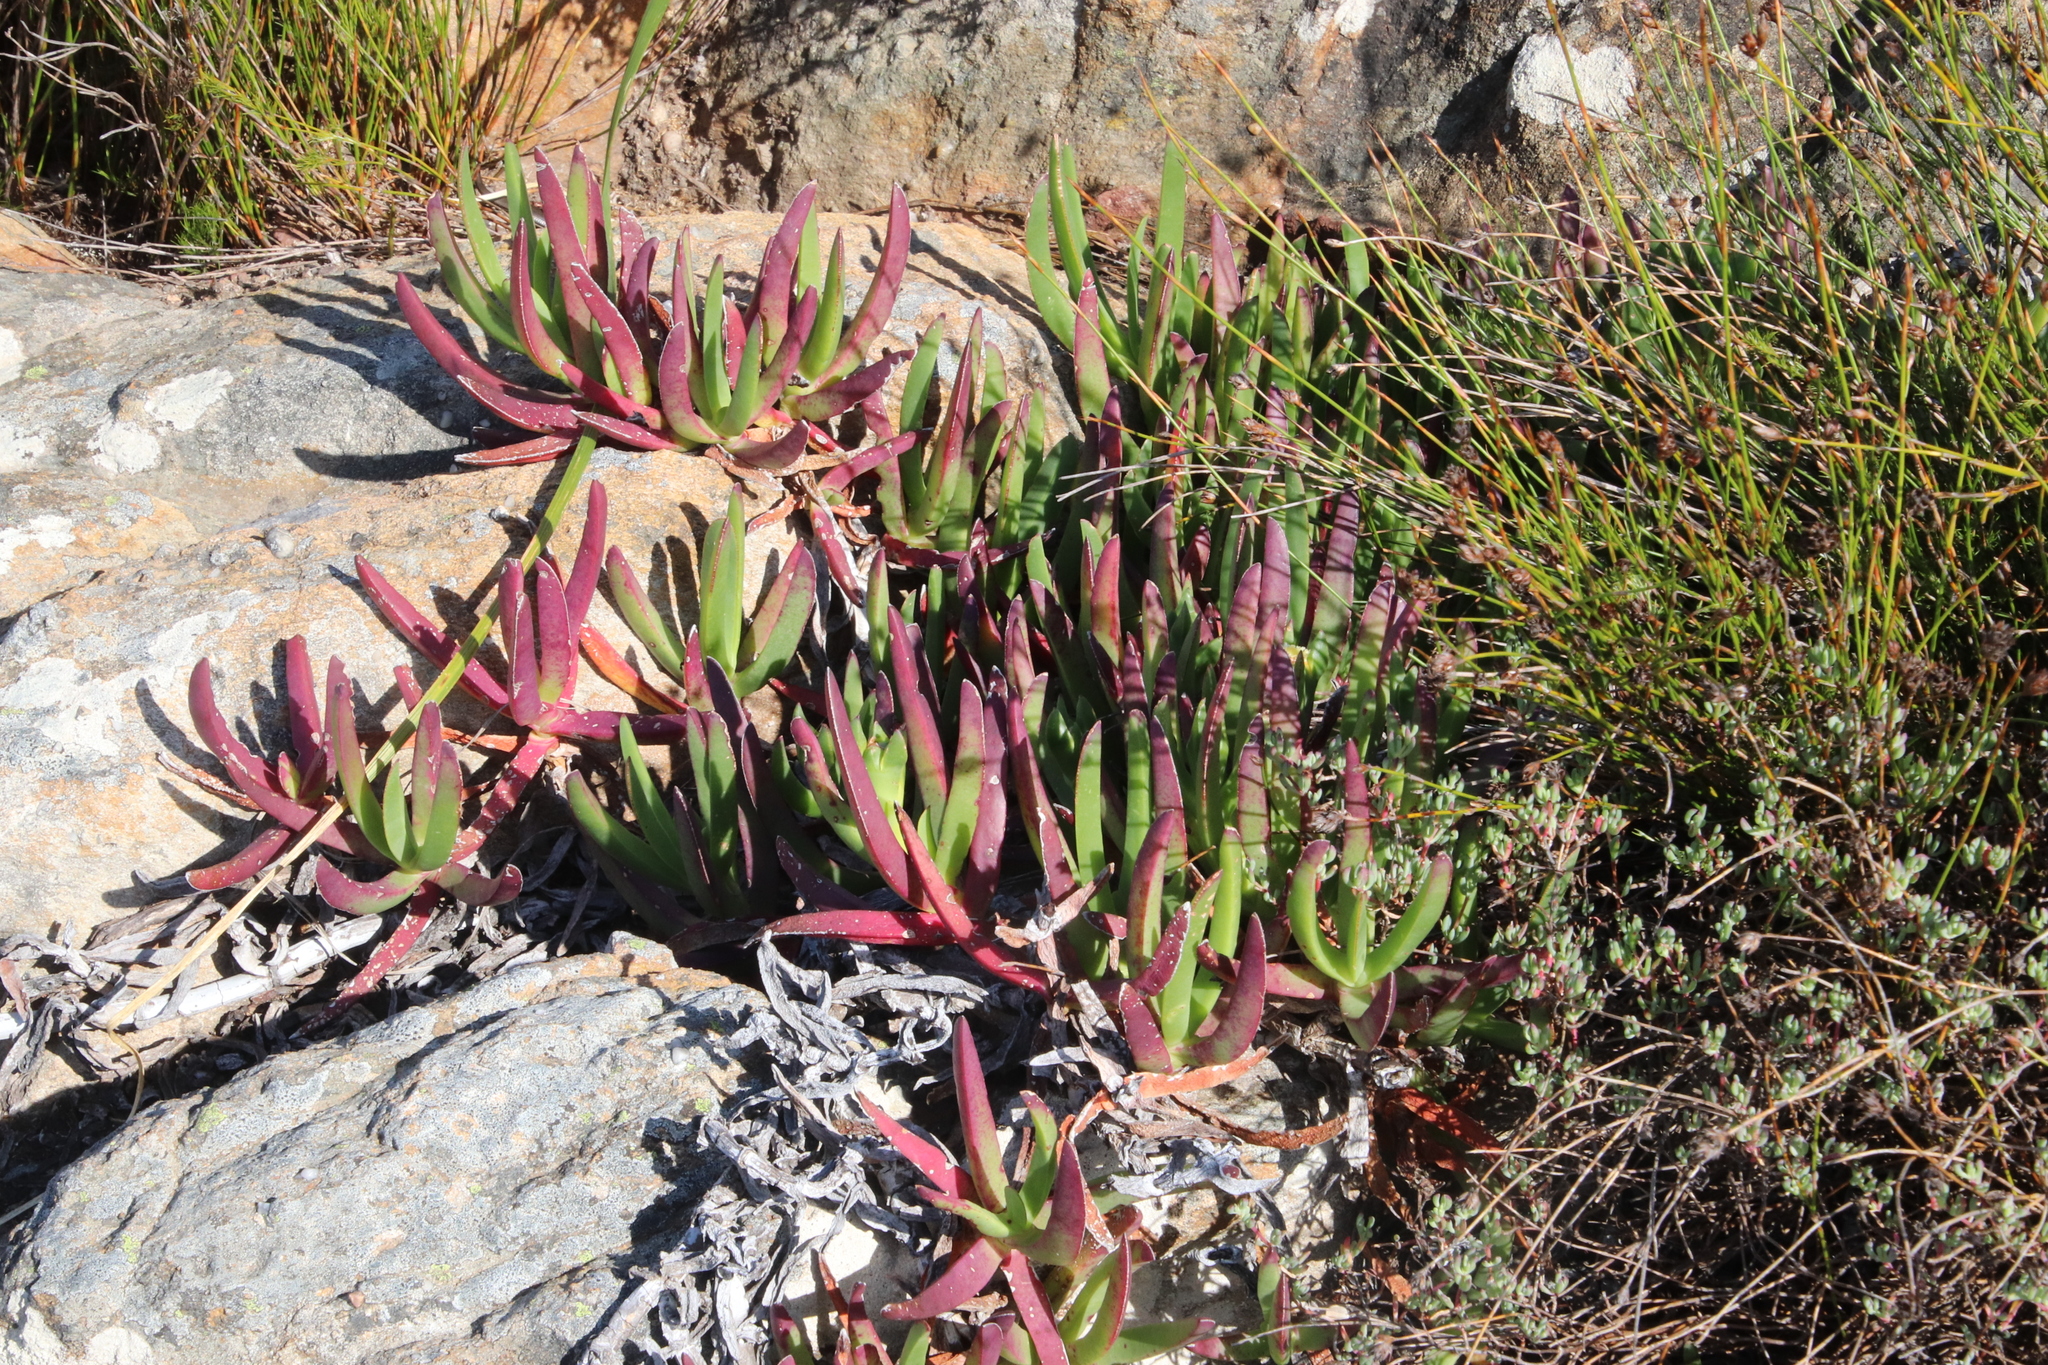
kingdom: Plantae
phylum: Tracheophyta
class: Magnoliopsida
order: Caryophyllales
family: Aizoaceae
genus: Carpobrotus
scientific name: Carpobrotus edulis
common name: Hottentot-fig
